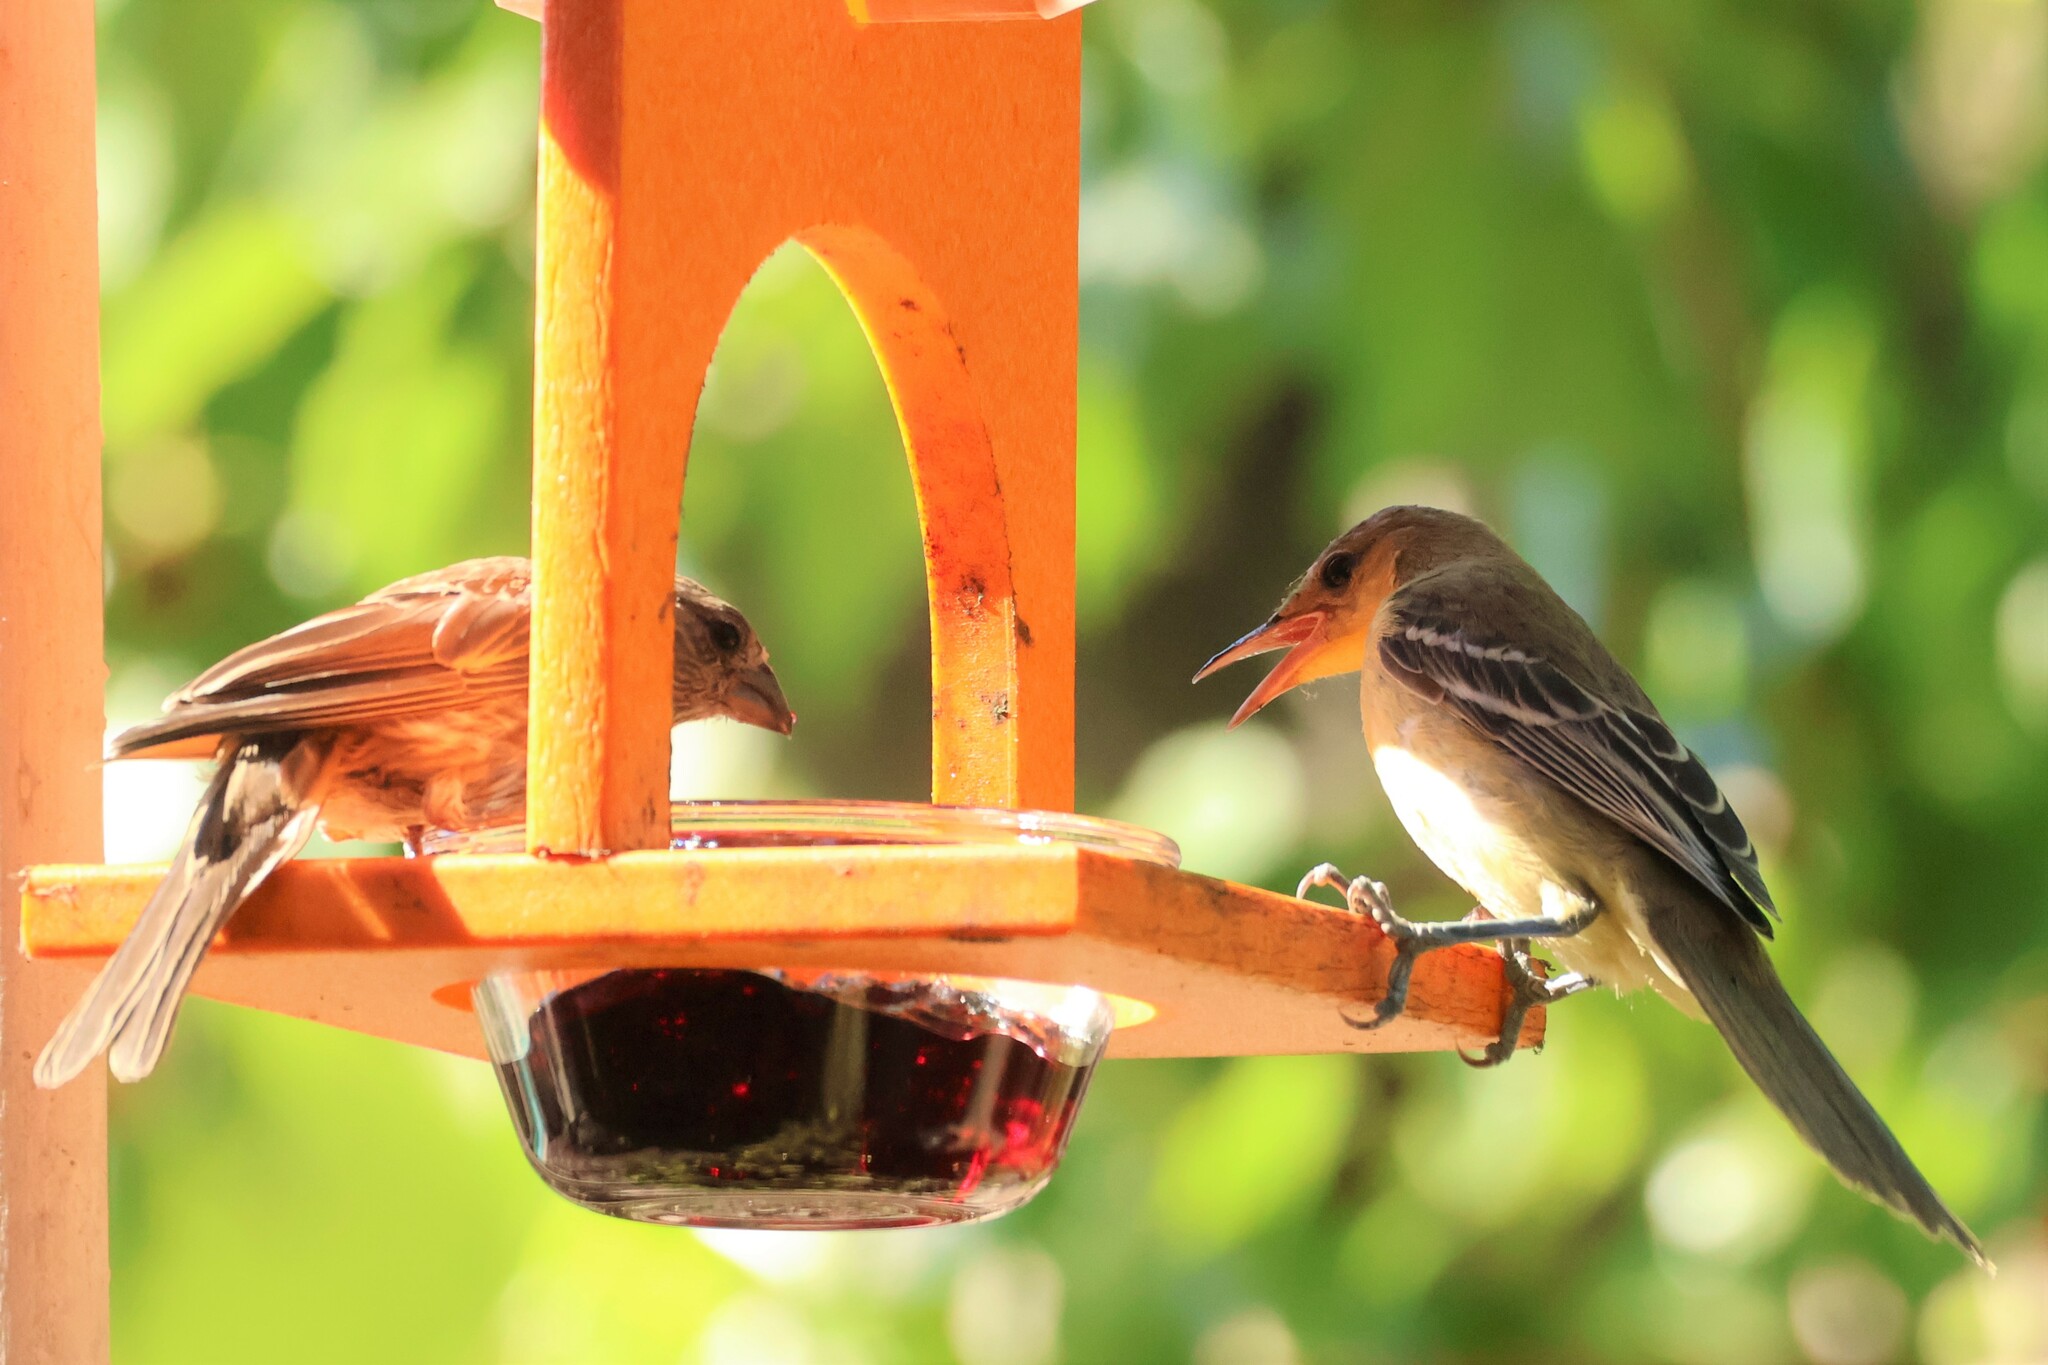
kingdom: Animalia
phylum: Chordata
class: Aves
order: Passeriformes
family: Icteridae
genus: Icterus
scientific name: Icterus cucullatus
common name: Hooded oriole
